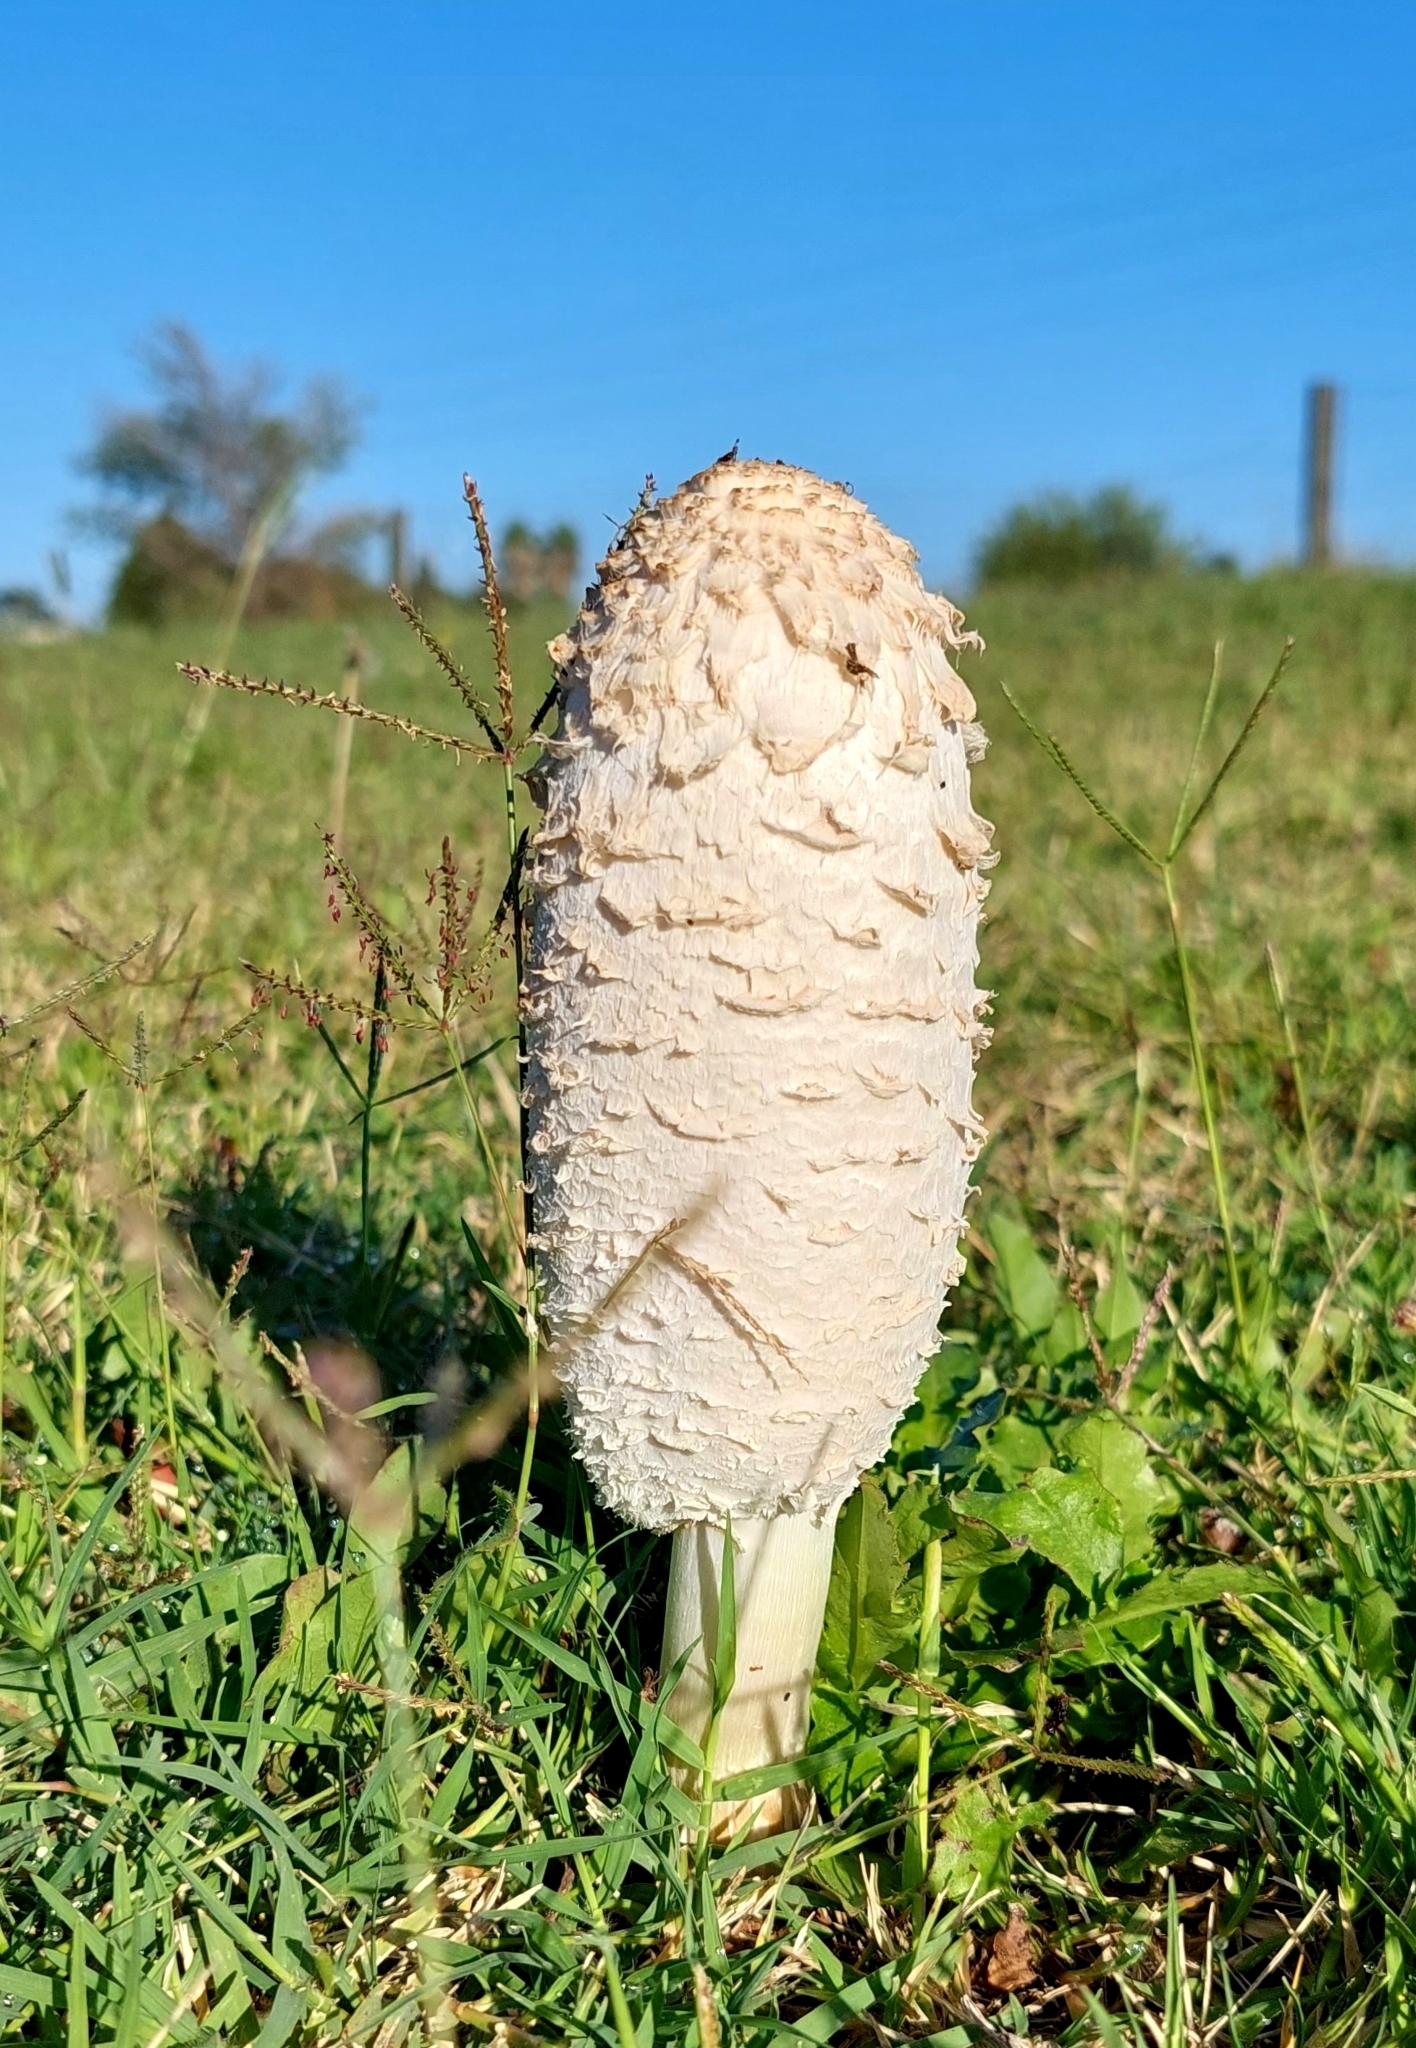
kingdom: Fungi
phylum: Basidiomycota
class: Agaricomycetes
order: Agaricales
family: Agaricaceae
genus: Coprinus
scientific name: Coprinus comatus
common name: Lawyer's wig
